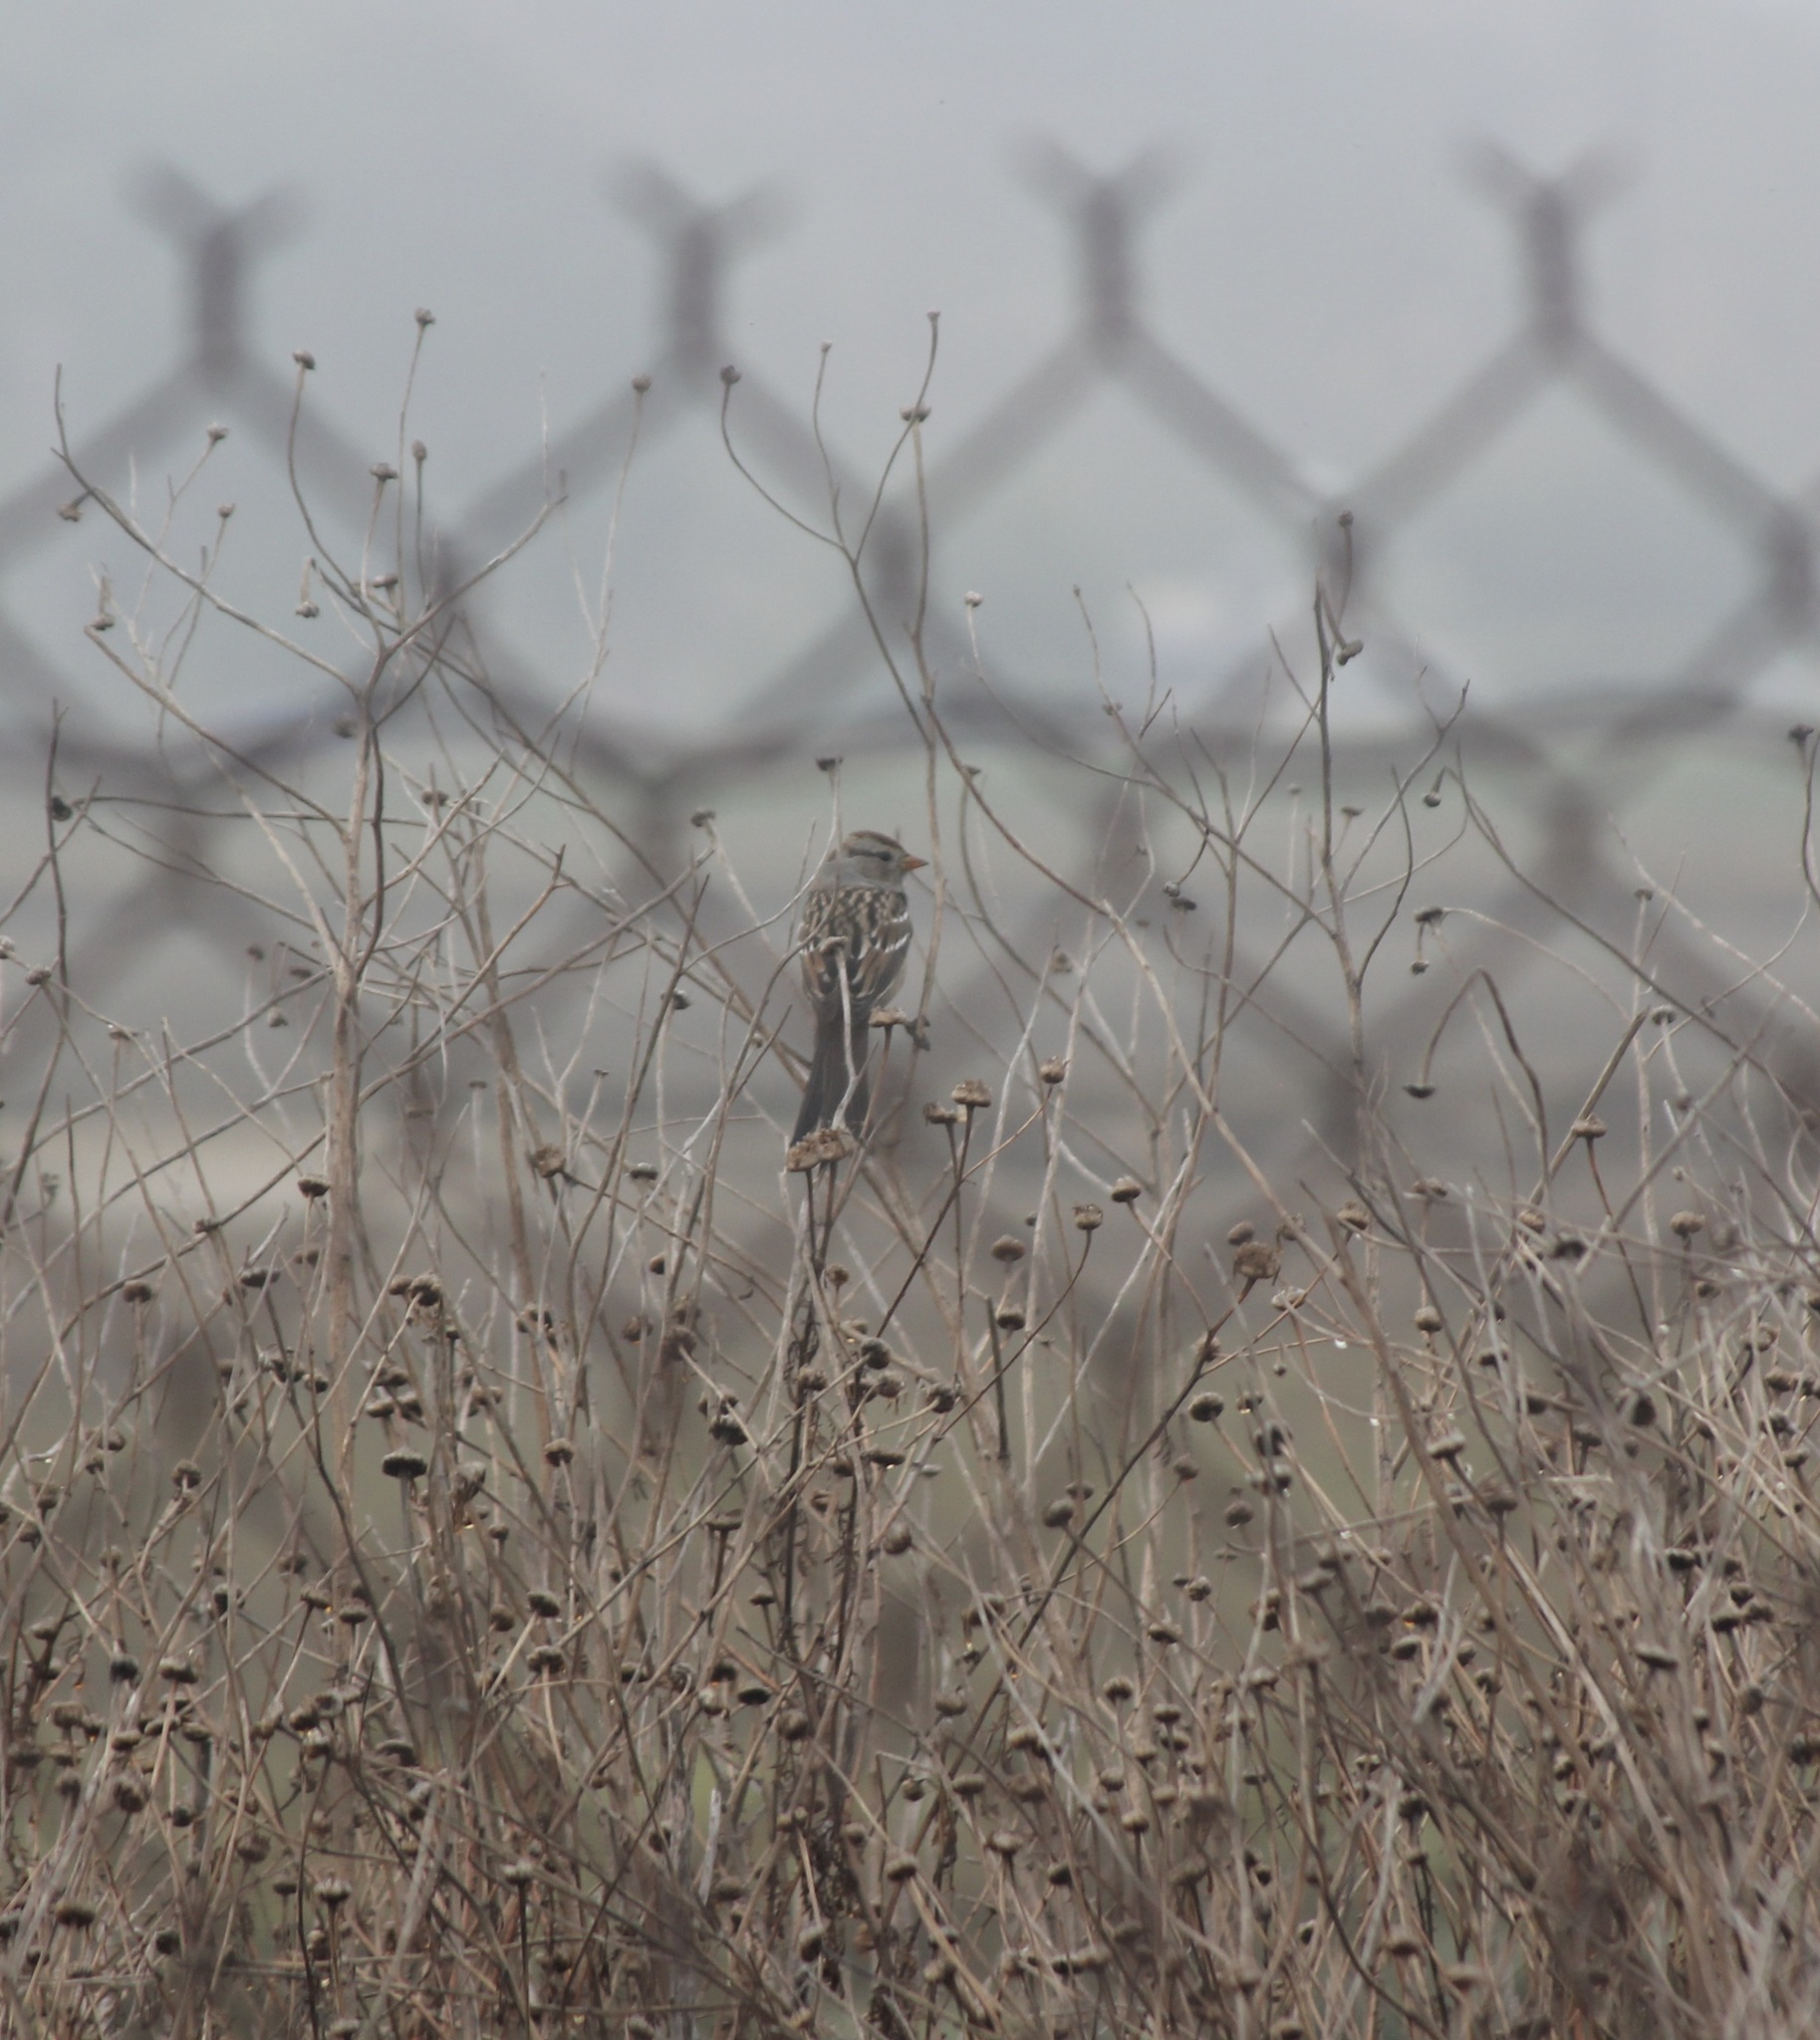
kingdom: Animalia
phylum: Chordata
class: Aves
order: Passeriformes
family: Passerellidae
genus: Zonotrichia
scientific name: Zonotrichia leucophrys
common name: White-crowned sparrow
